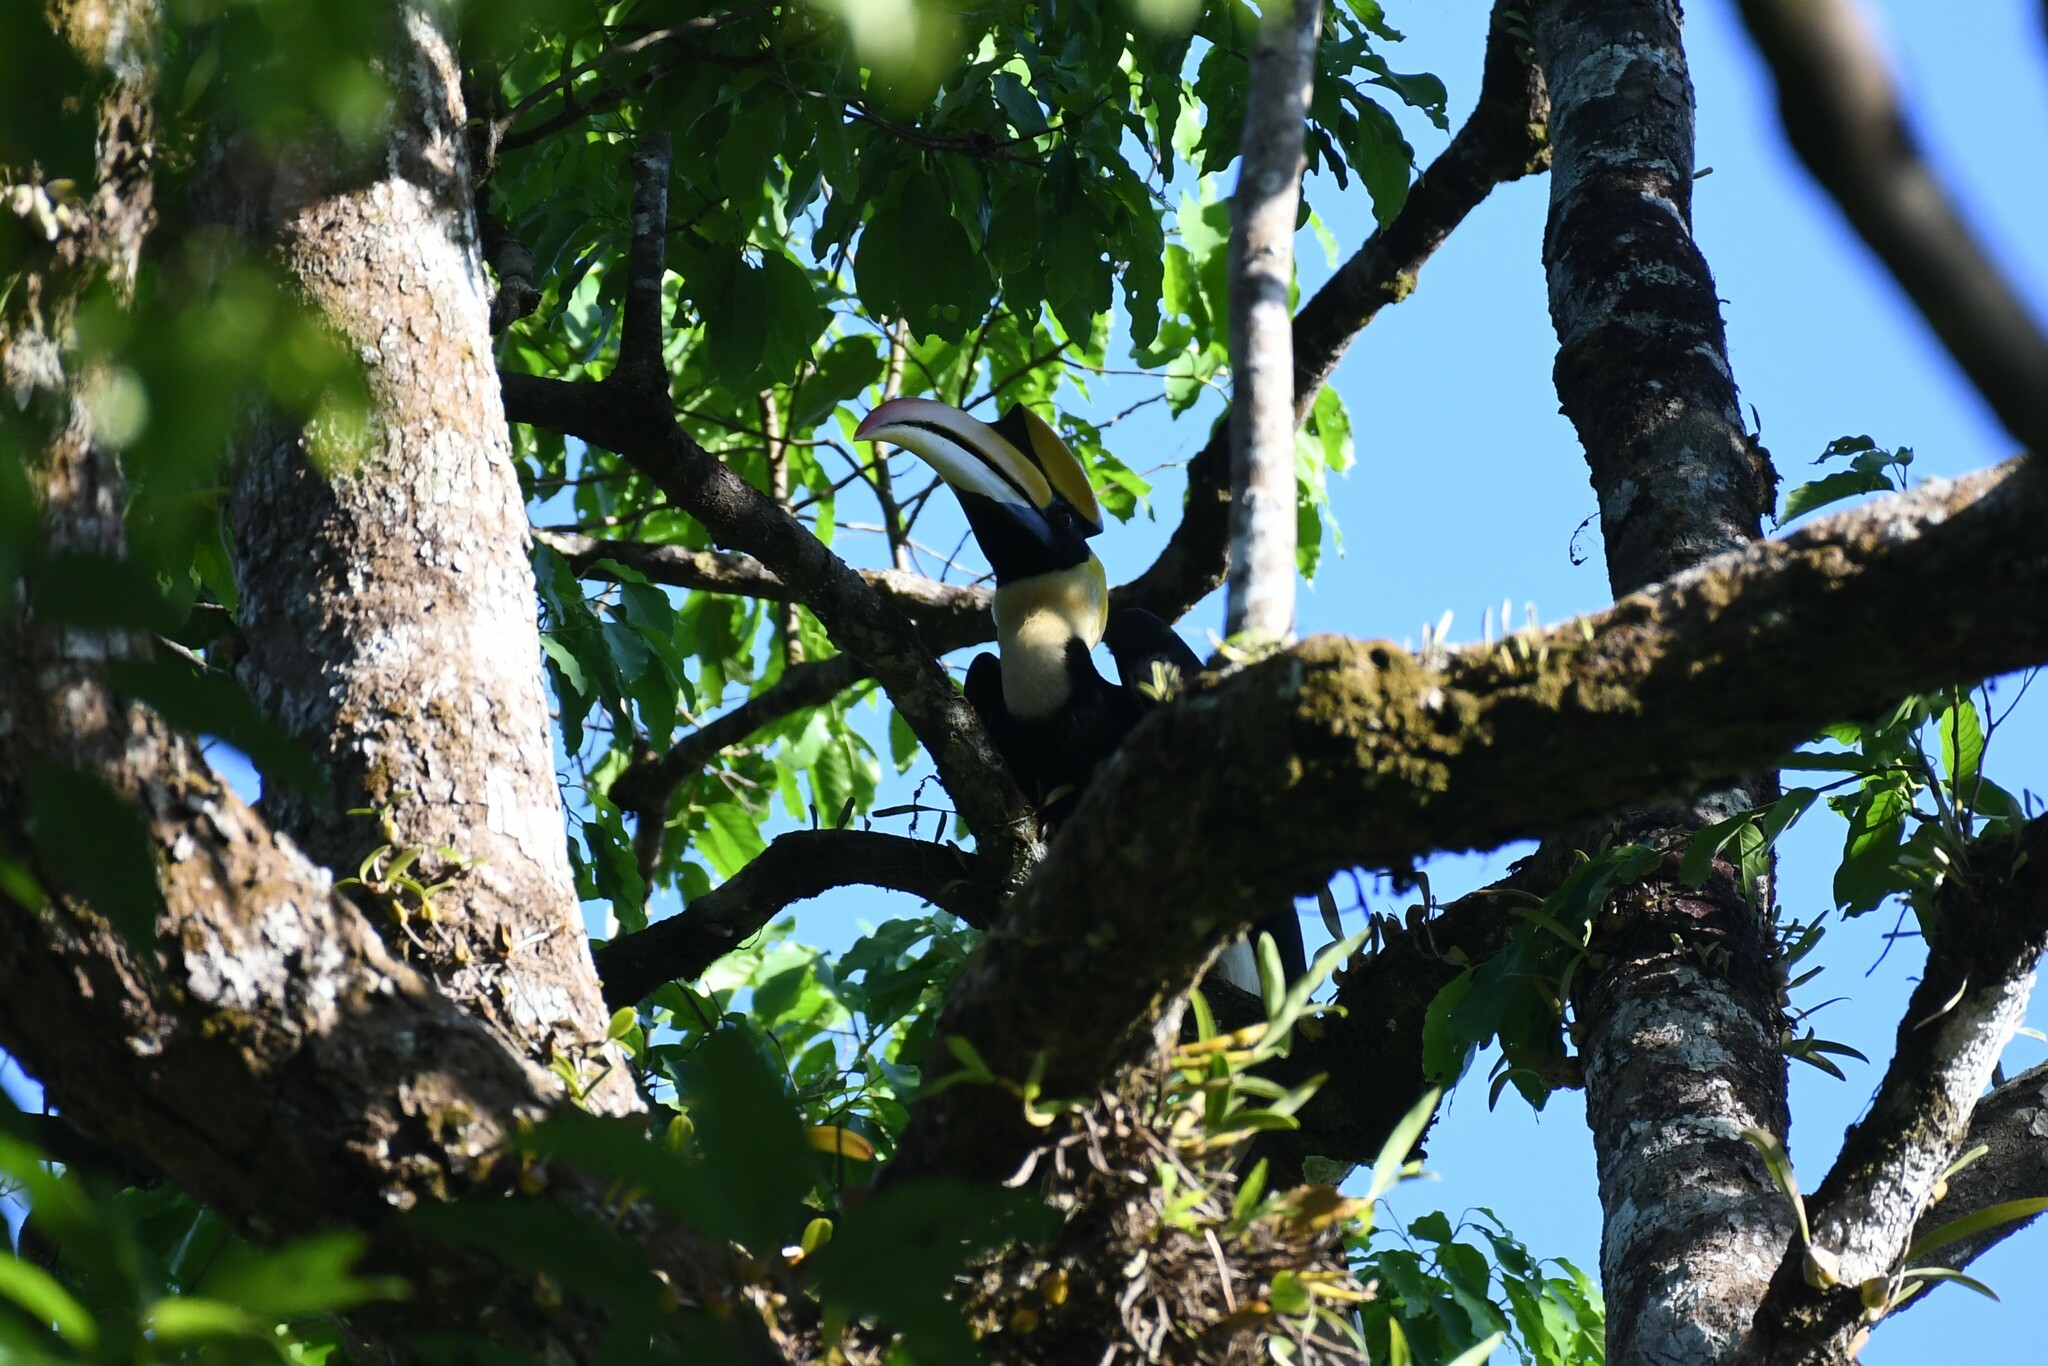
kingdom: Animalia
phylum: Chordata
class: Aves
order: Bucerotiformes
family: Bucerotidae
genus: Buceros
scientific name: Buceros bicornis
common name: Great hornbill
